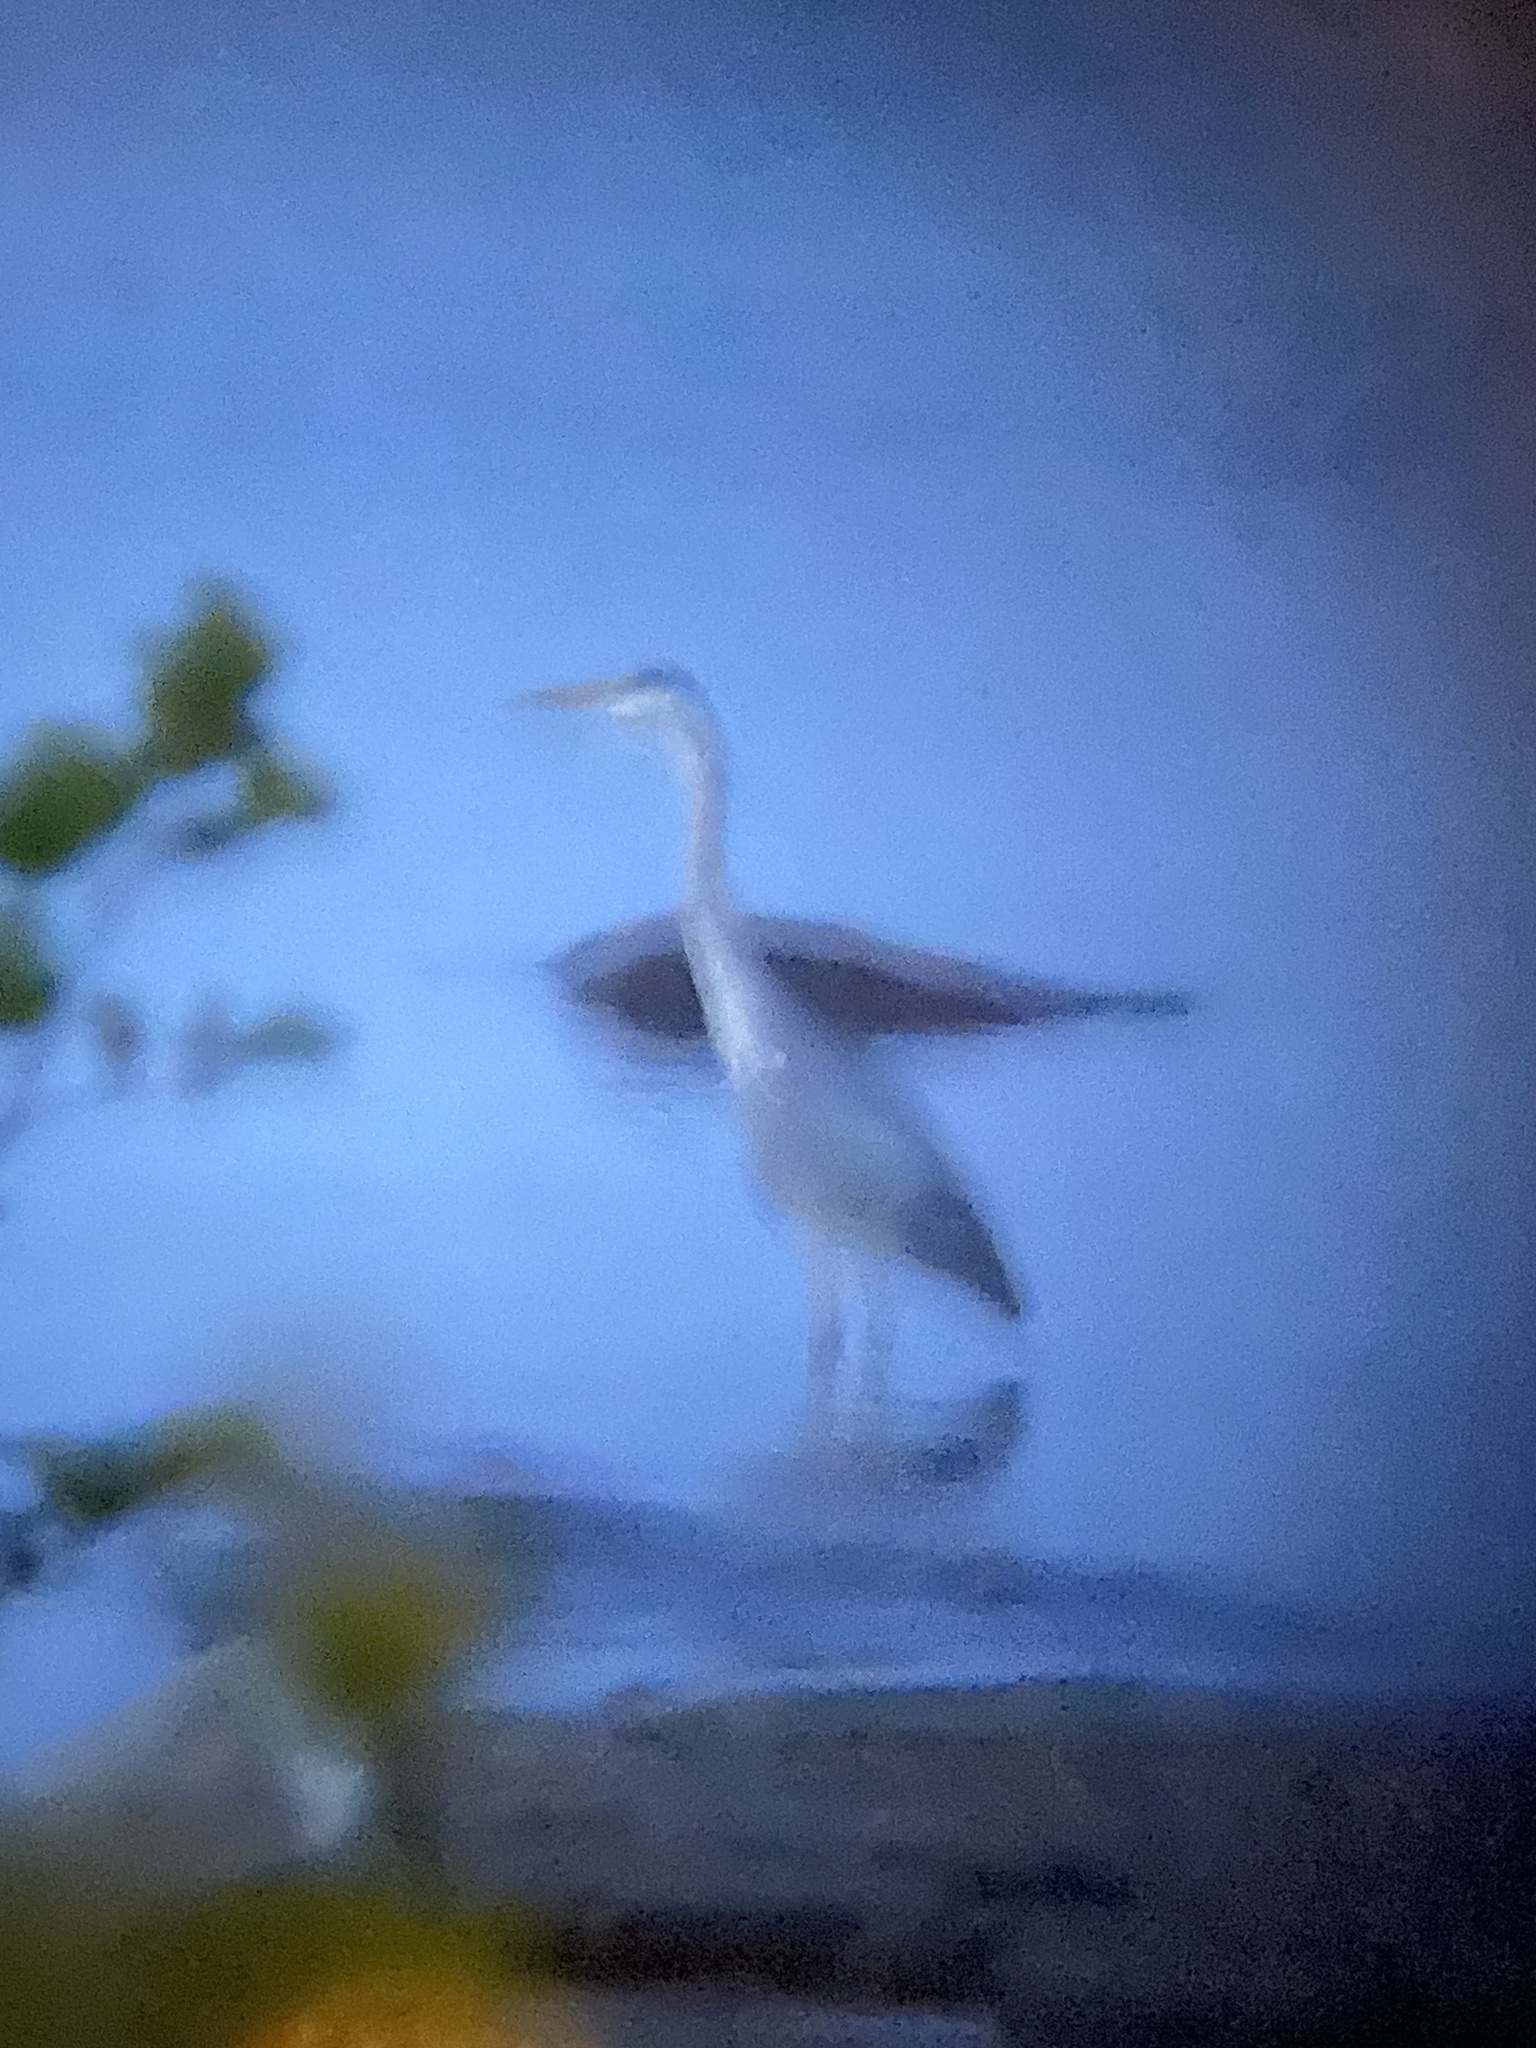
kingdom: Animalia
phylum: Chordata
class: Aves
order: Pelecaniformes
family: Ardeidae
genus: Ardea
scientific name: Ardea cinerea
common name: Grey heron
